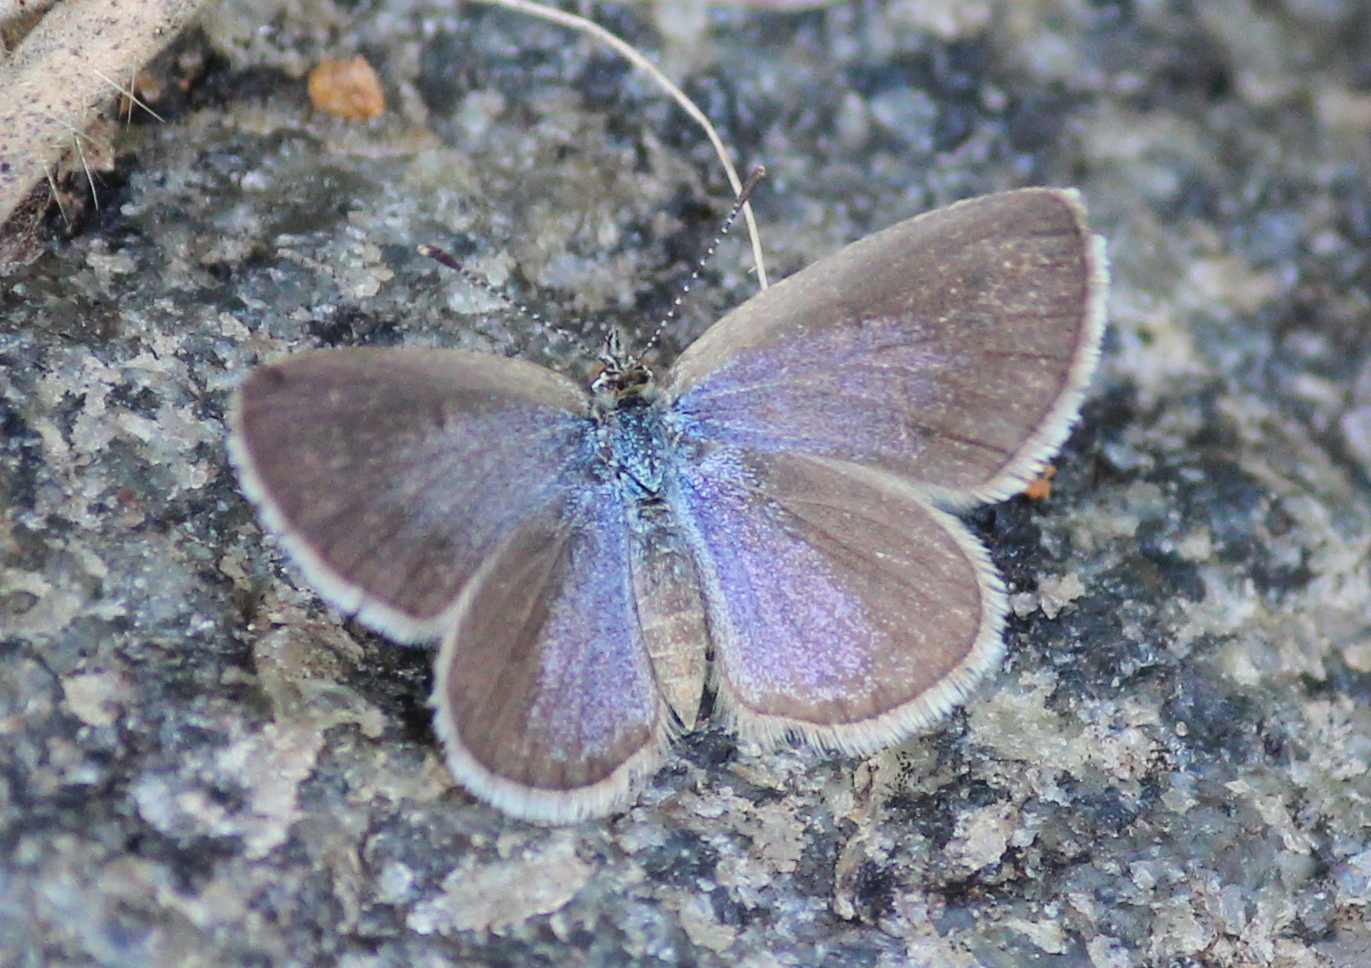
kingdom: Animalia
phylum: Arthropoda
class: Insecta
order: Lepidoptera
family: Lycaenidae
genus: Zizina
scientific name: Zizina otis
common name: Lesser grass blue
